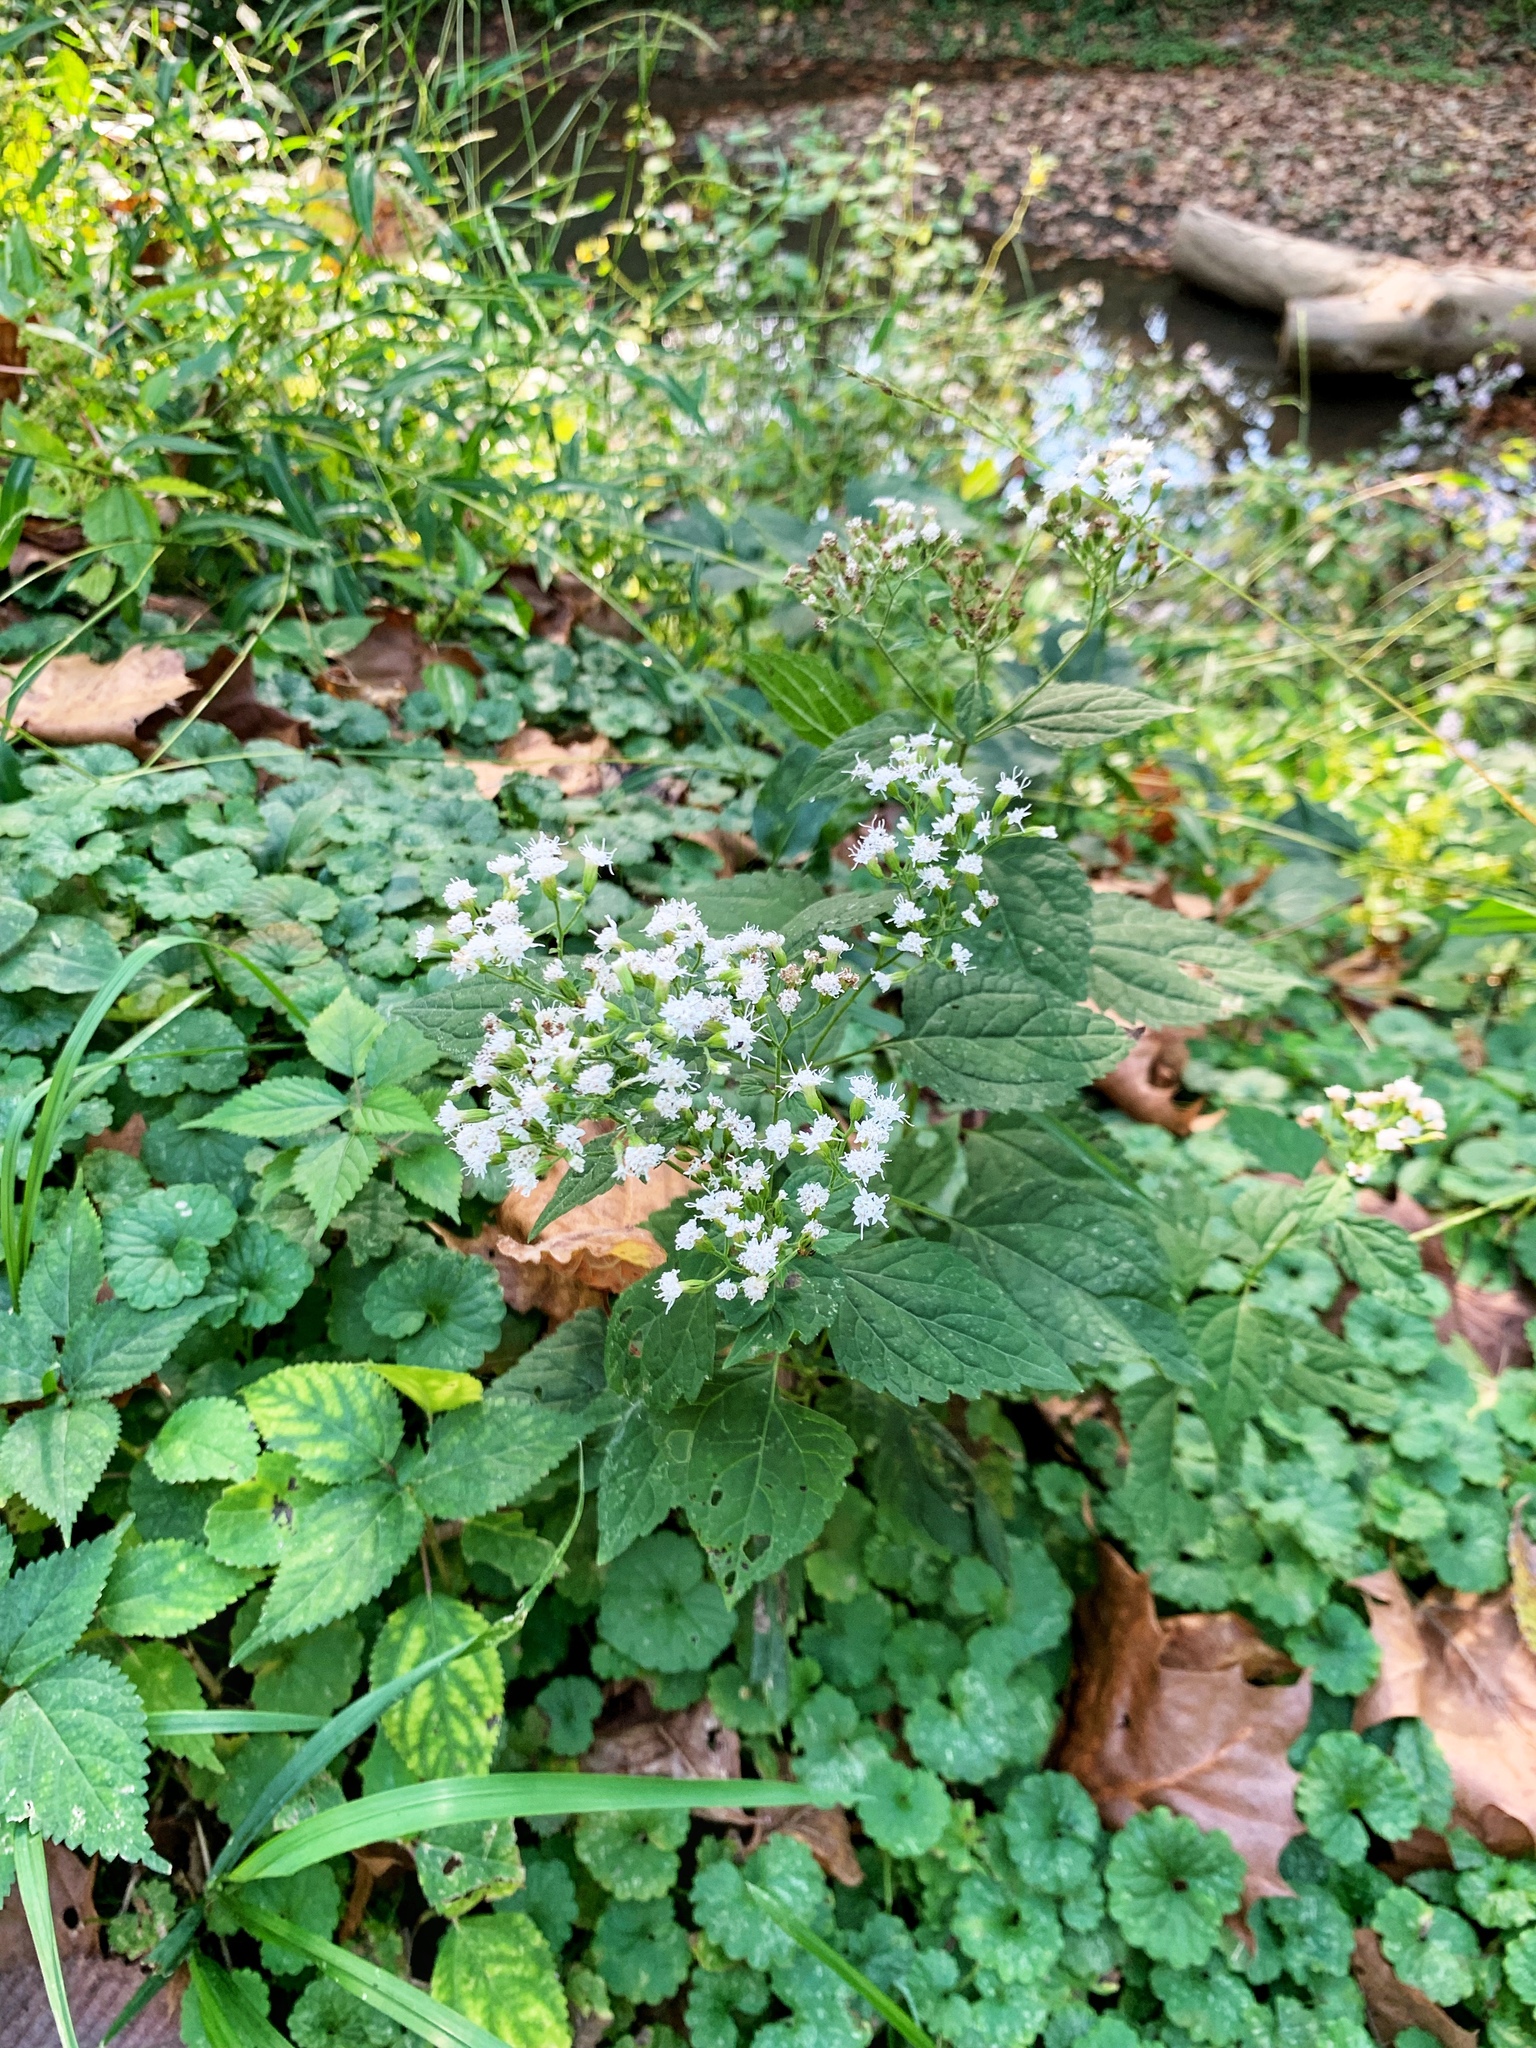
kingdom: Plantae
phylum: Tracheophyta
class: Magnoliopsida
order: Asterales
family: Asteraceae
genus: Ageratina
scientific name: Ageratina altissima
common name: White snakeroot
